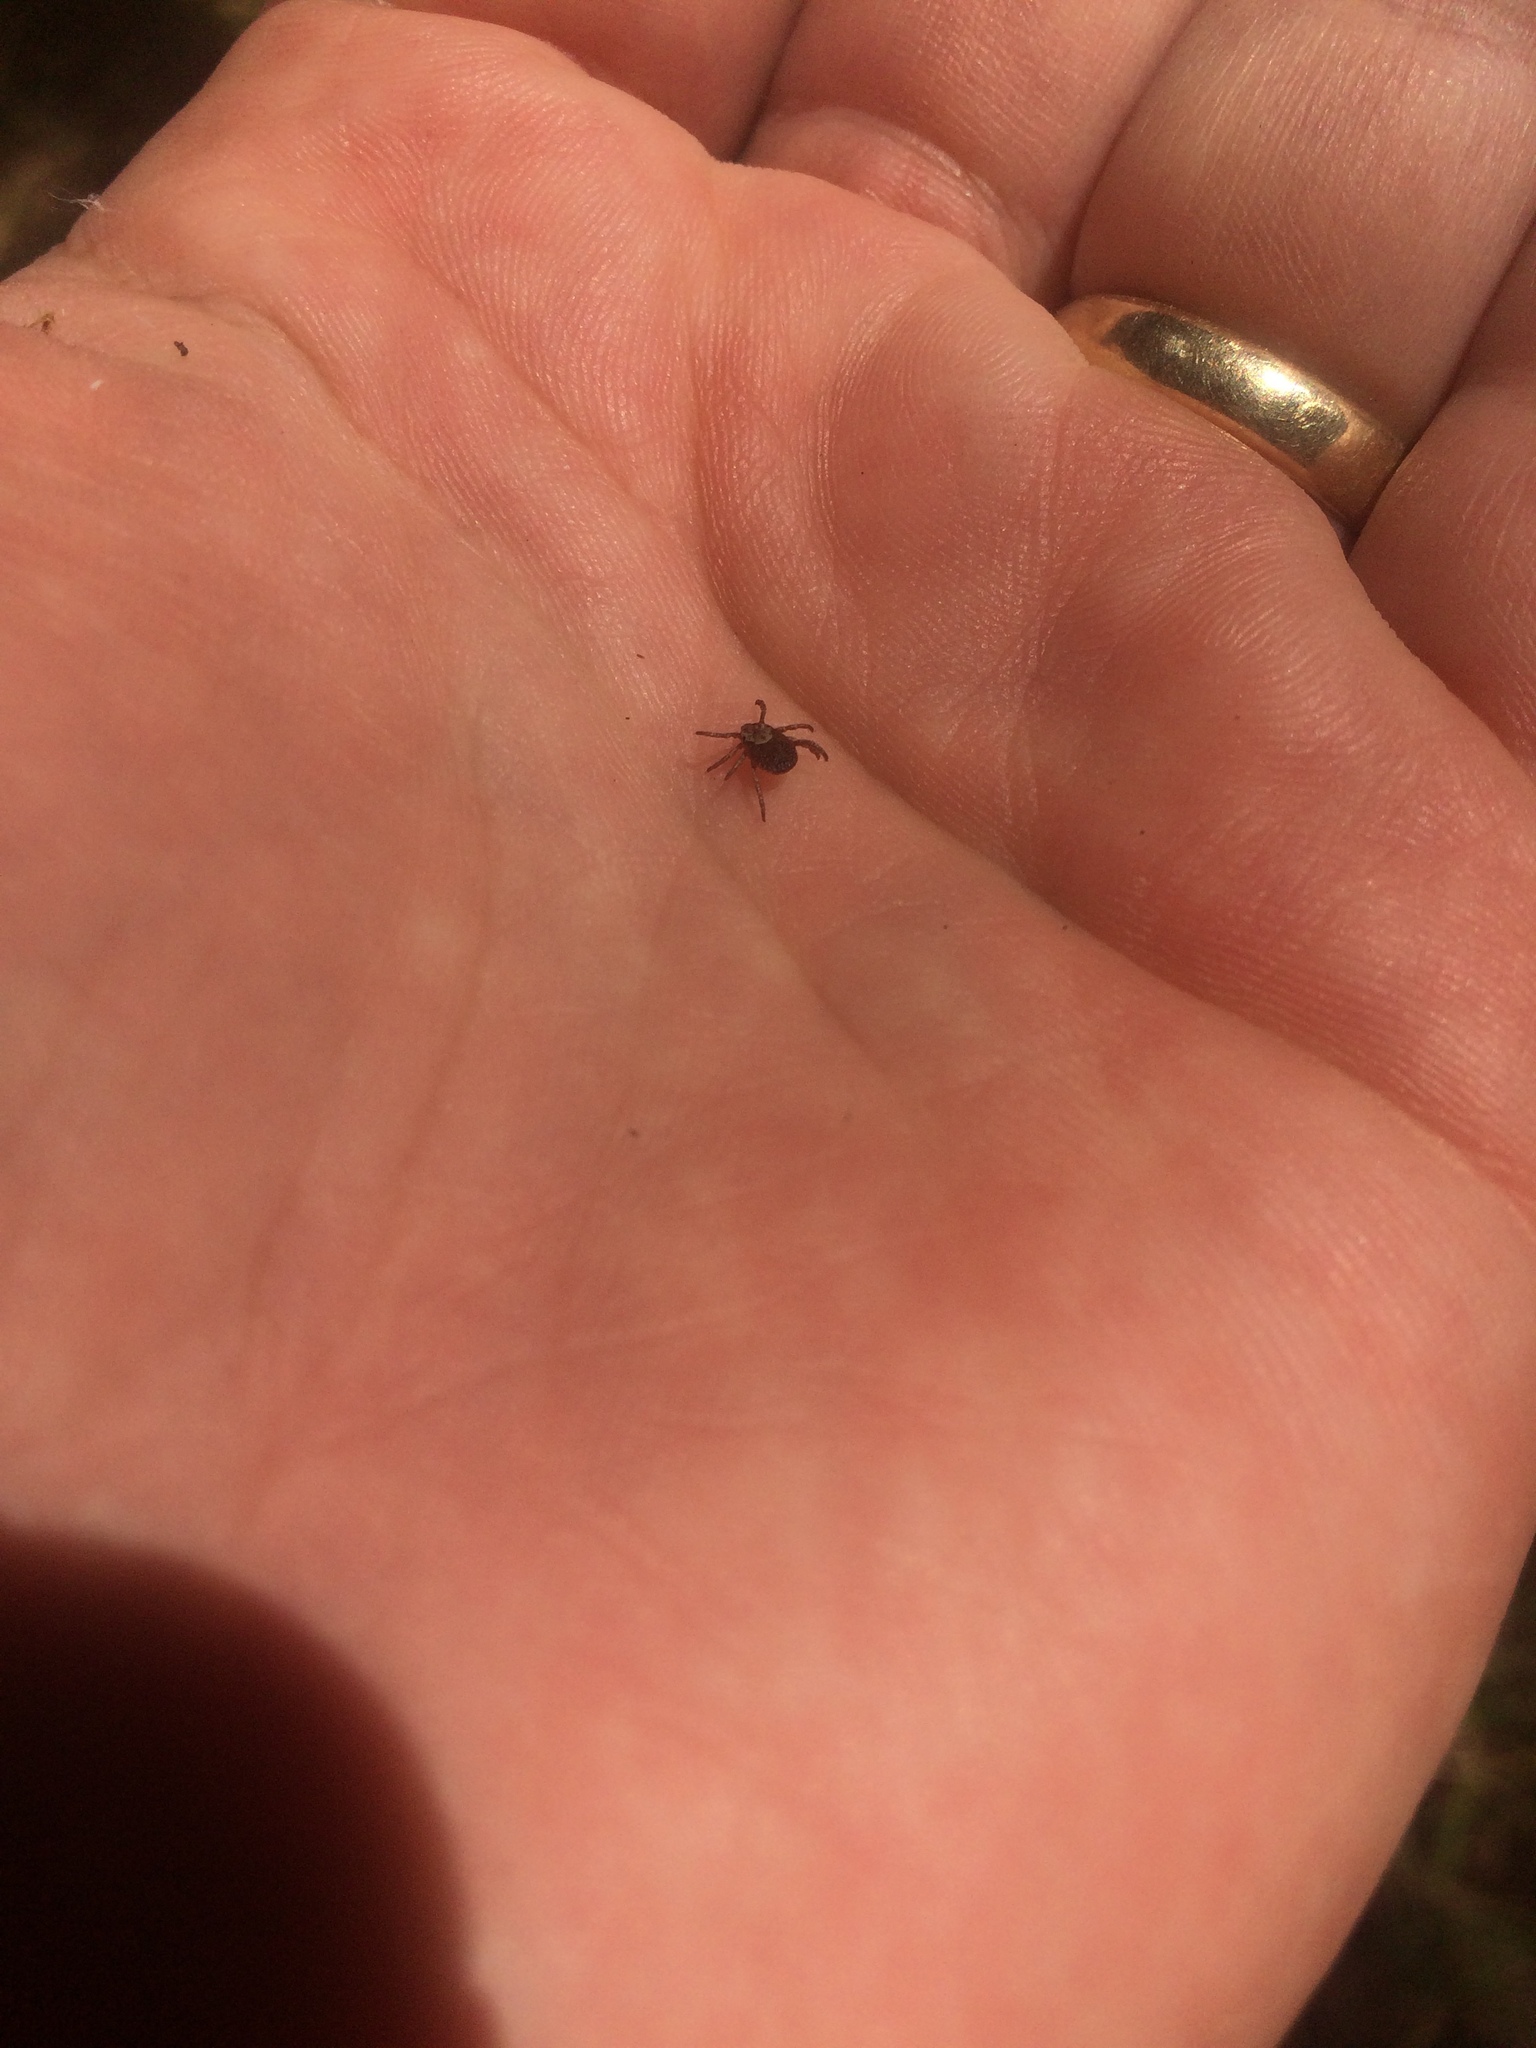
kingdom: Animalia
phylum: Arthropoda
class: Arachnida
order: Ixodida
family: Ixodidae
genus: Dermacentor
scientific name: Dermacentor variabilis
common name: American dog tick
